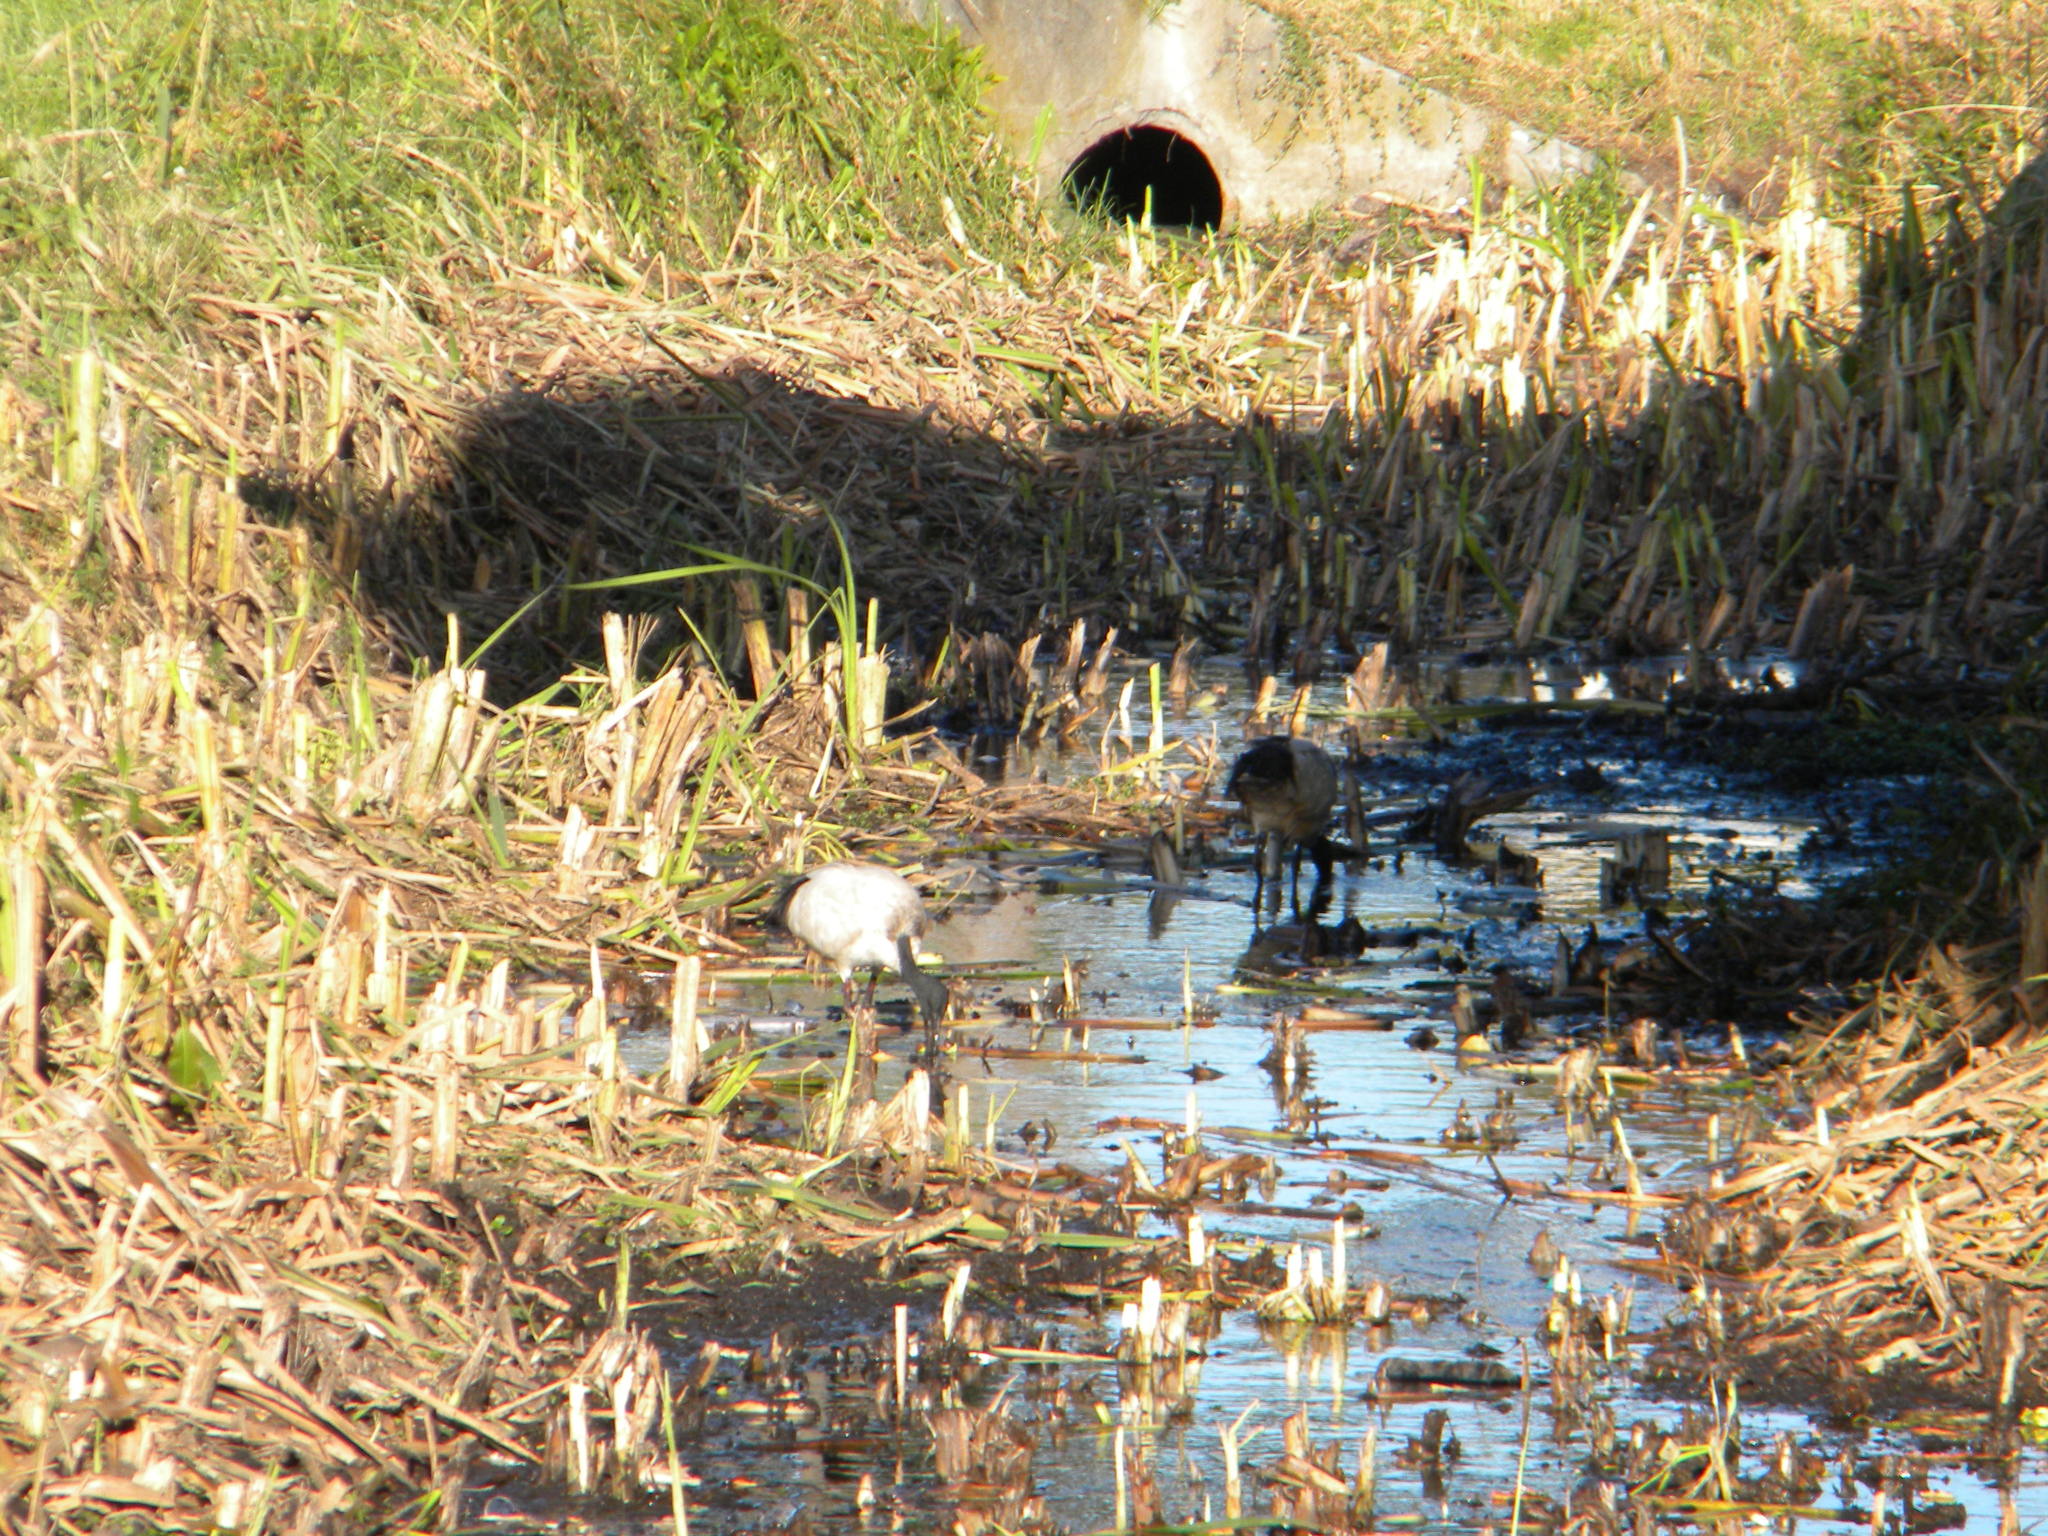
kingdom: Animalia
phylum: Chordata
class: Aves
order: Pelecaniformes
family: Threskiornithidae
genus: Threskiornis
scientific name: Threskiornis aethiopicus
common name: Sacred ibis
